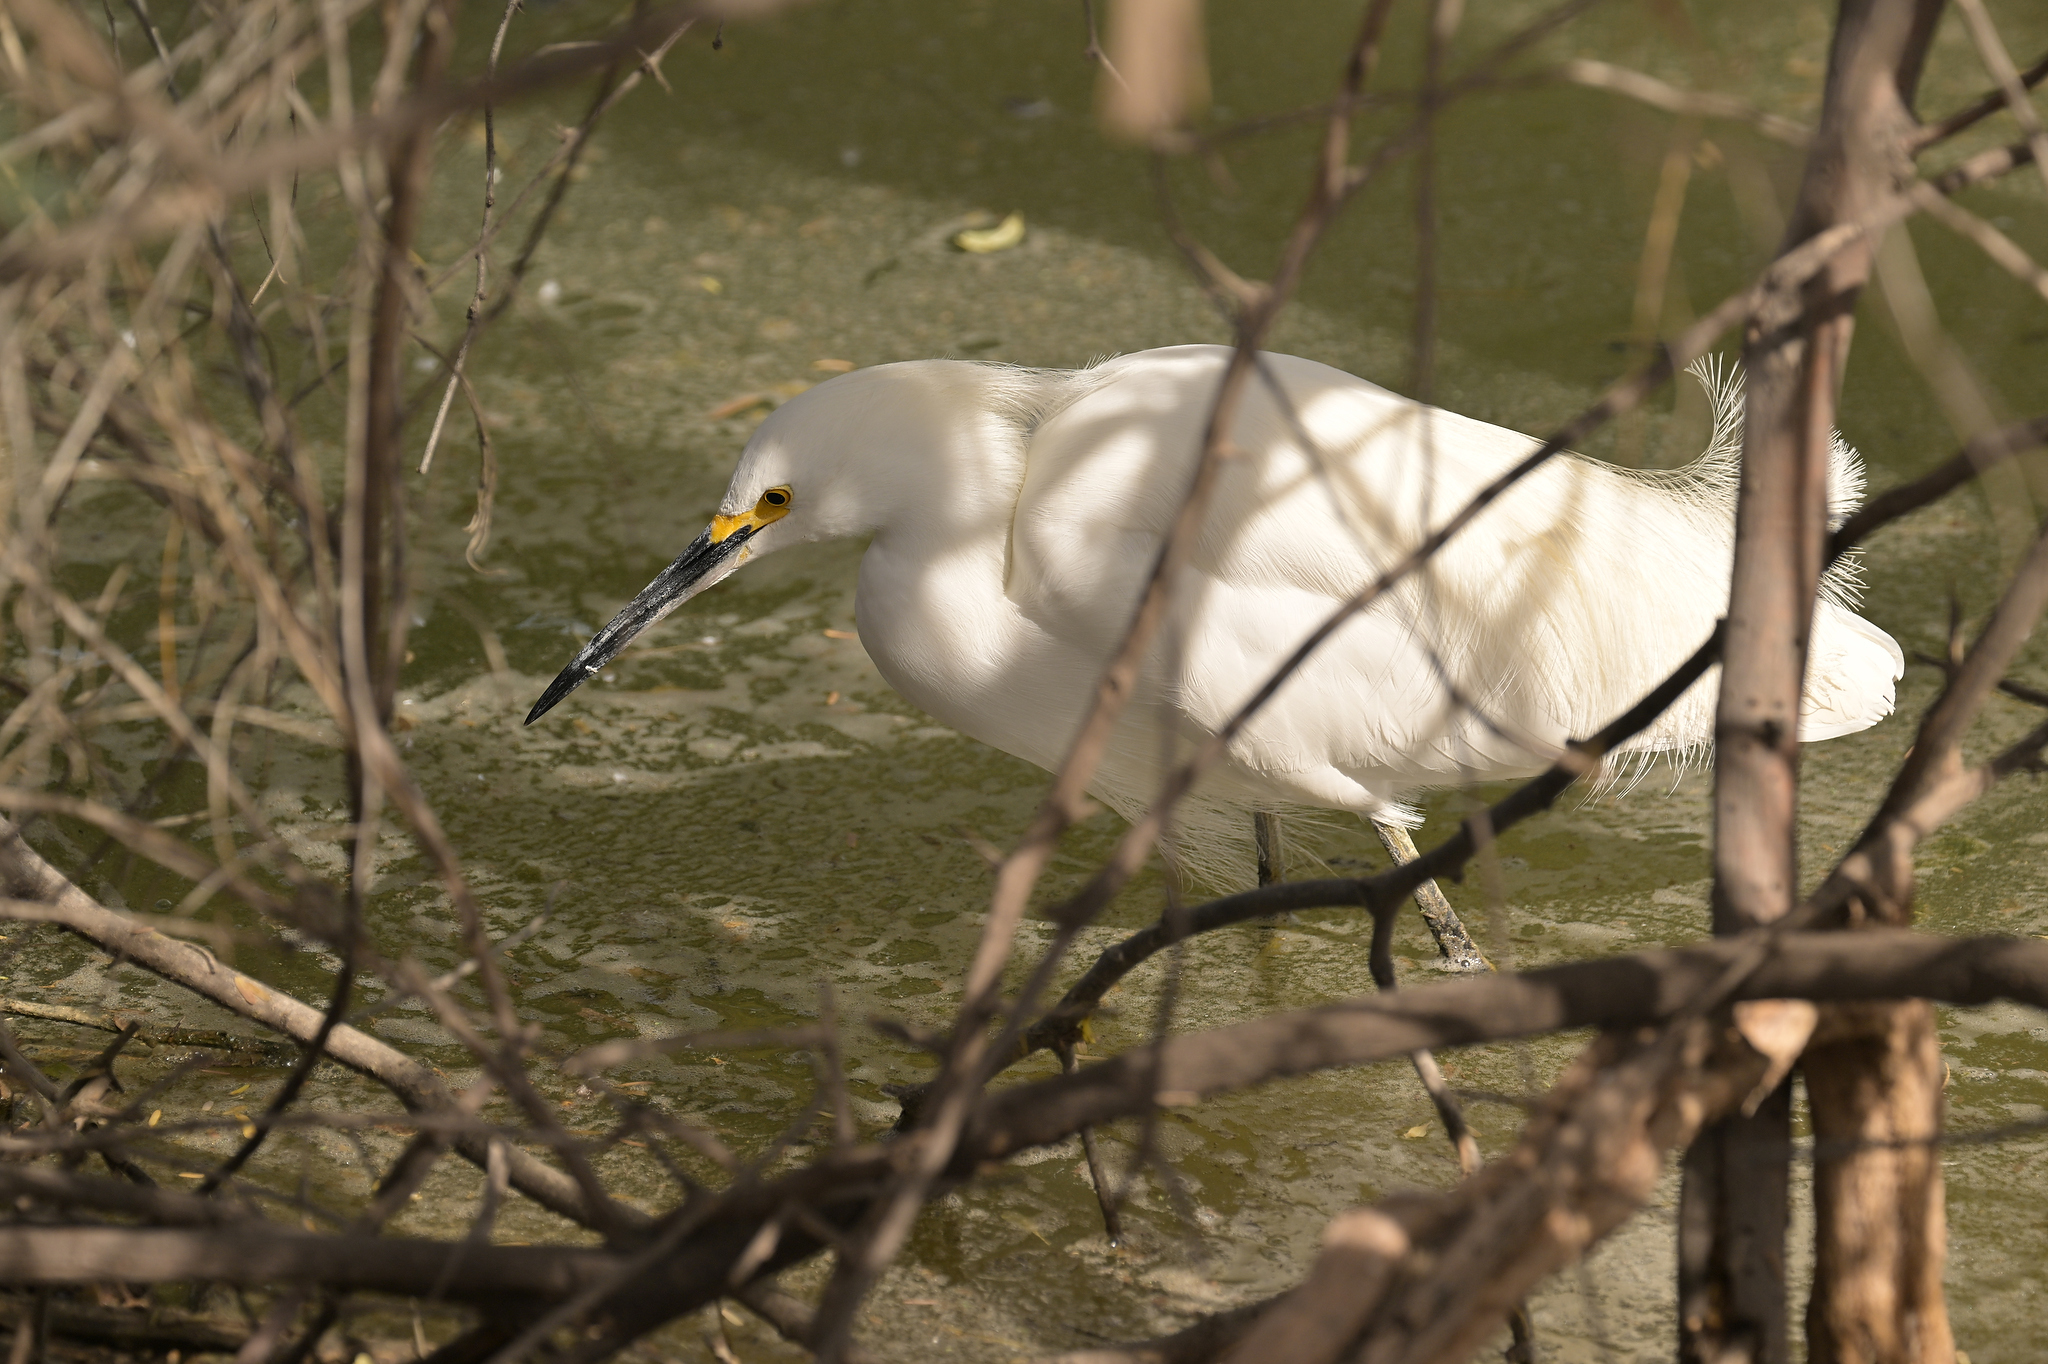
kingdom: Animalia
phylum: Chordata
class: Aves
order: Pelecaniformes
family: Ardeidae
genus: Egretta
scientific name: Egretta thula
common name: Snowy egret
